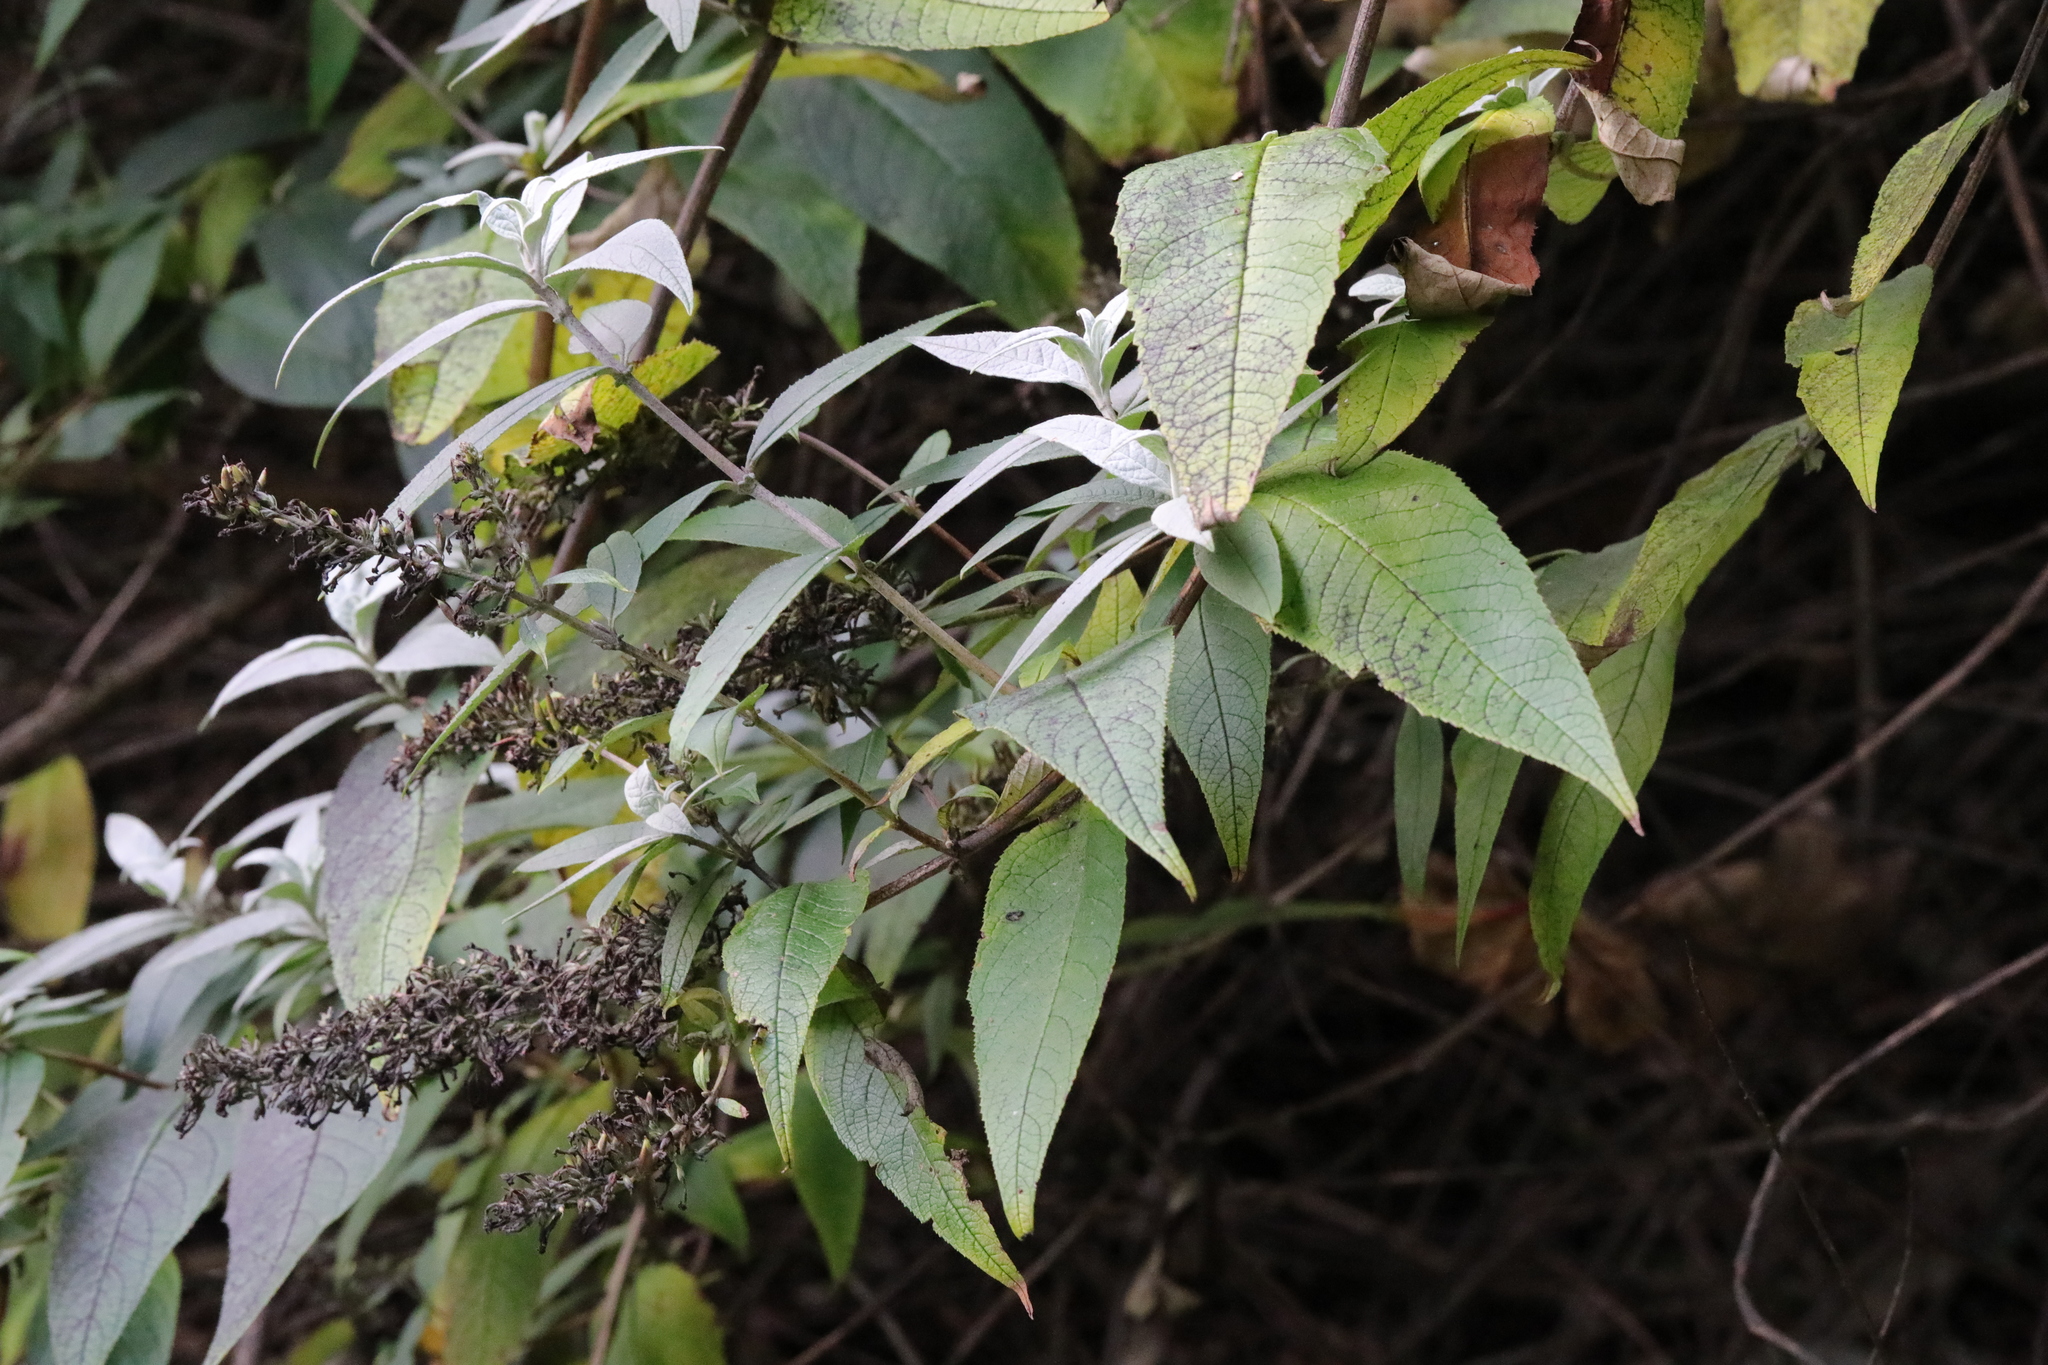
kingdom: Plantae
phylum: Tracheophyta
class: Magnoliopsida
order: Lamiales
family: Scrophulariaceae
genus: Buddleja
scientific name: Buddleja davidii
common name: Butterfly-bush
